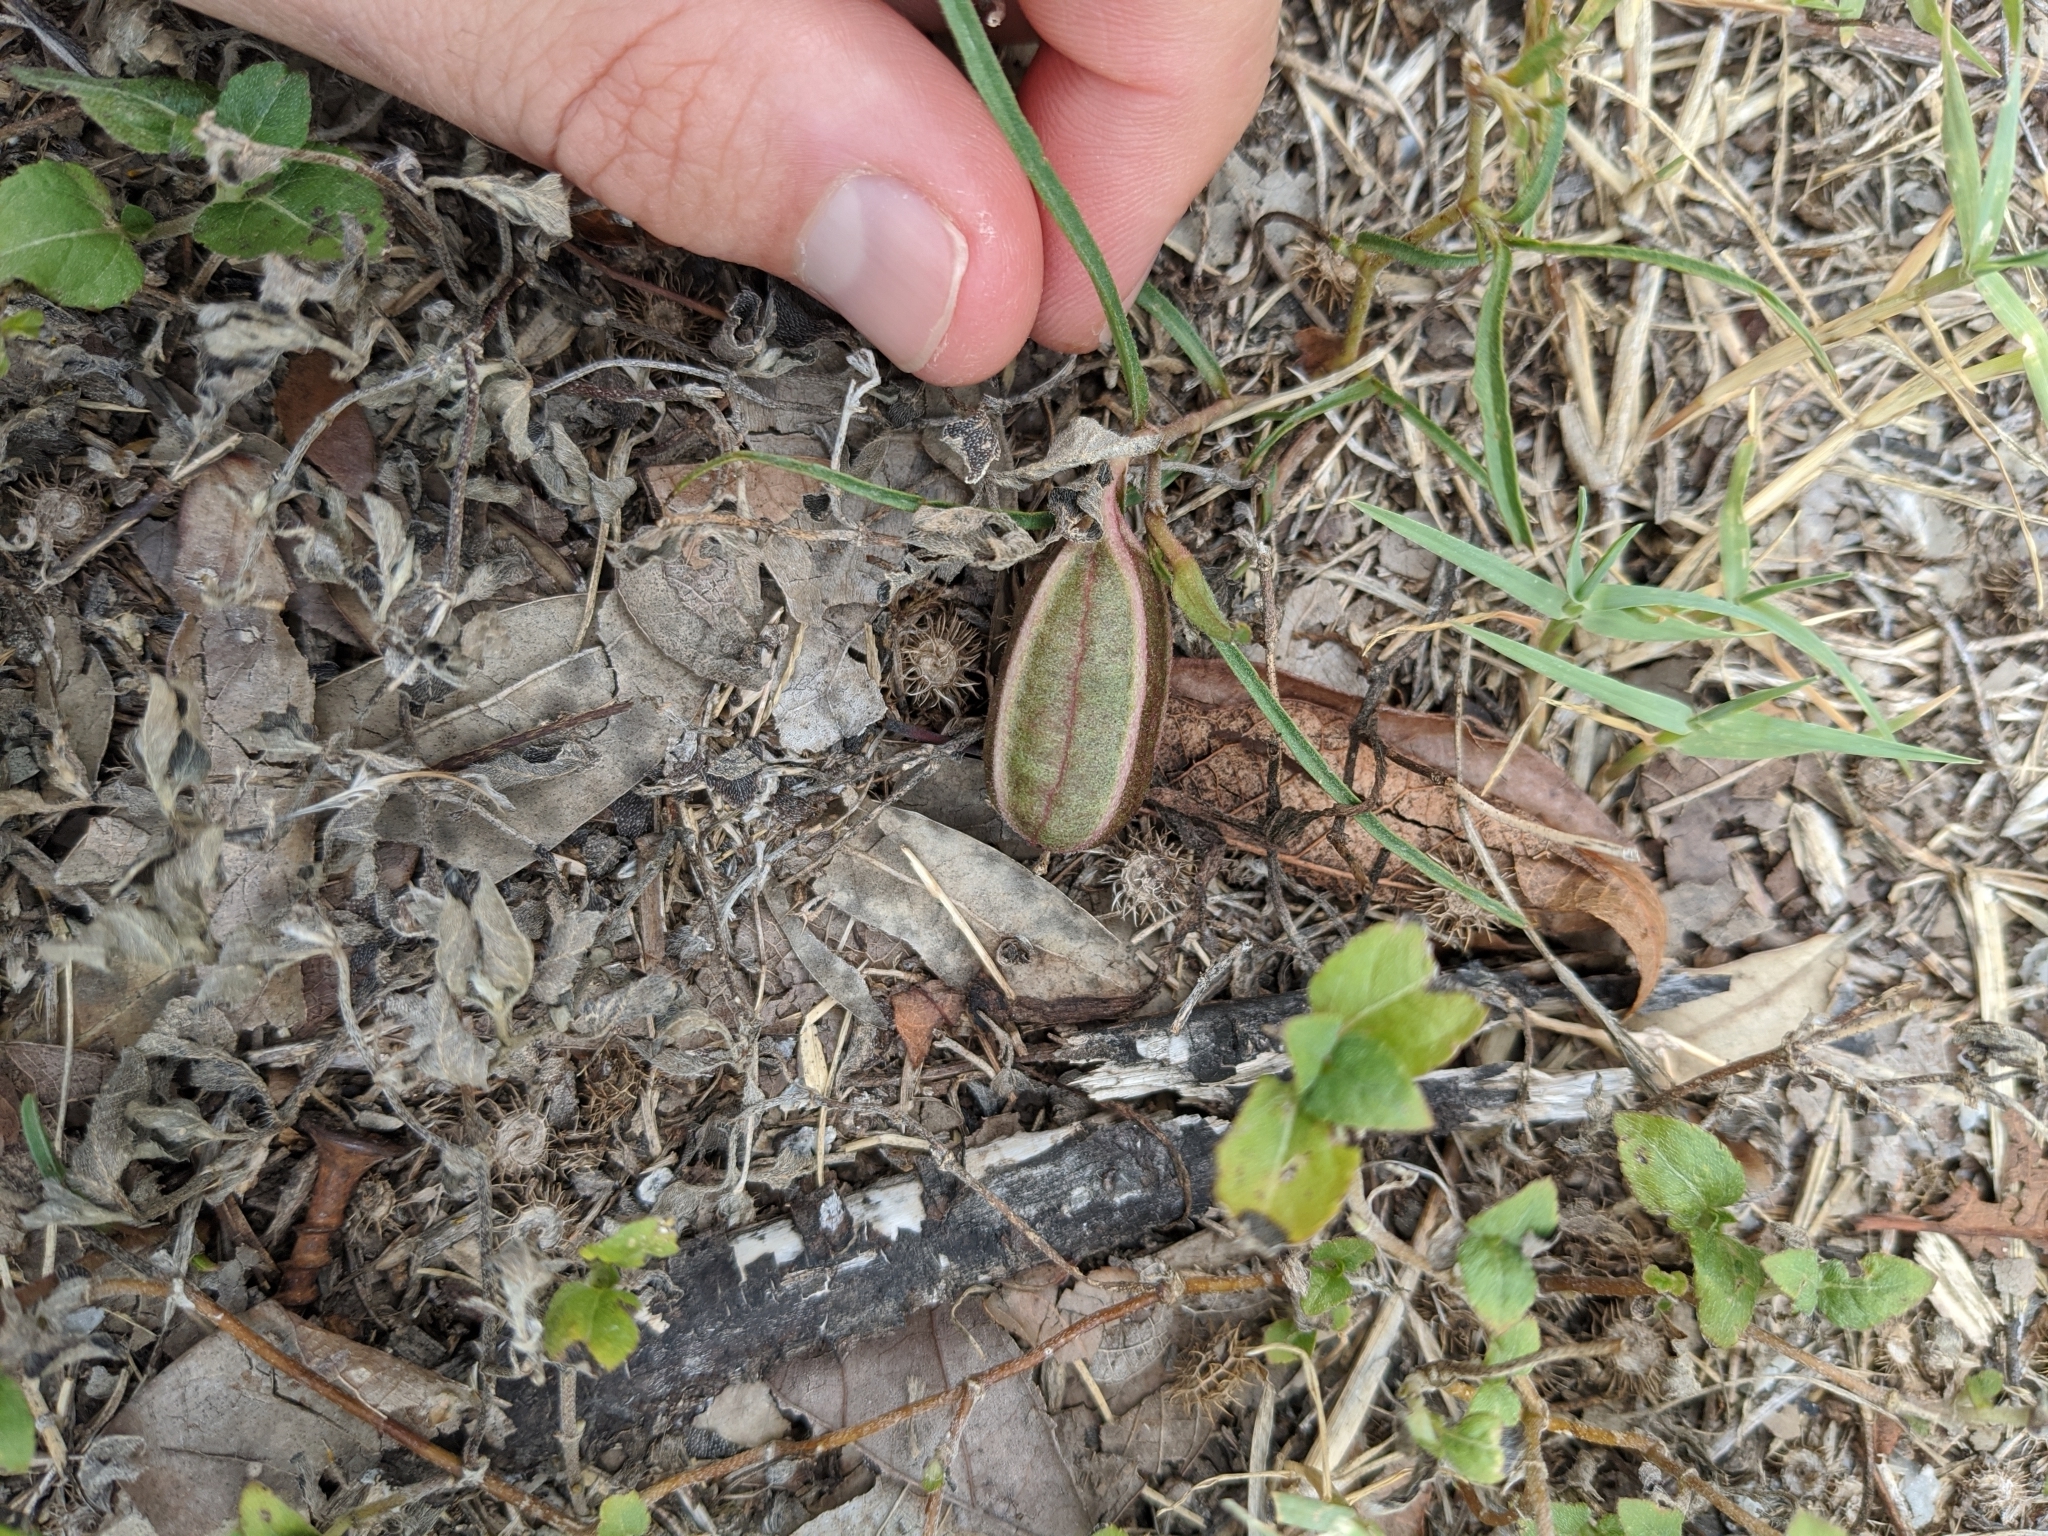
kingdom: Plantae
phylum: Tracheophyta
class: Magnoliopsida
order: Piperales
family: Aristolochiaceae
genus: Aristolochia
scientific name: Aristolochia erecta
